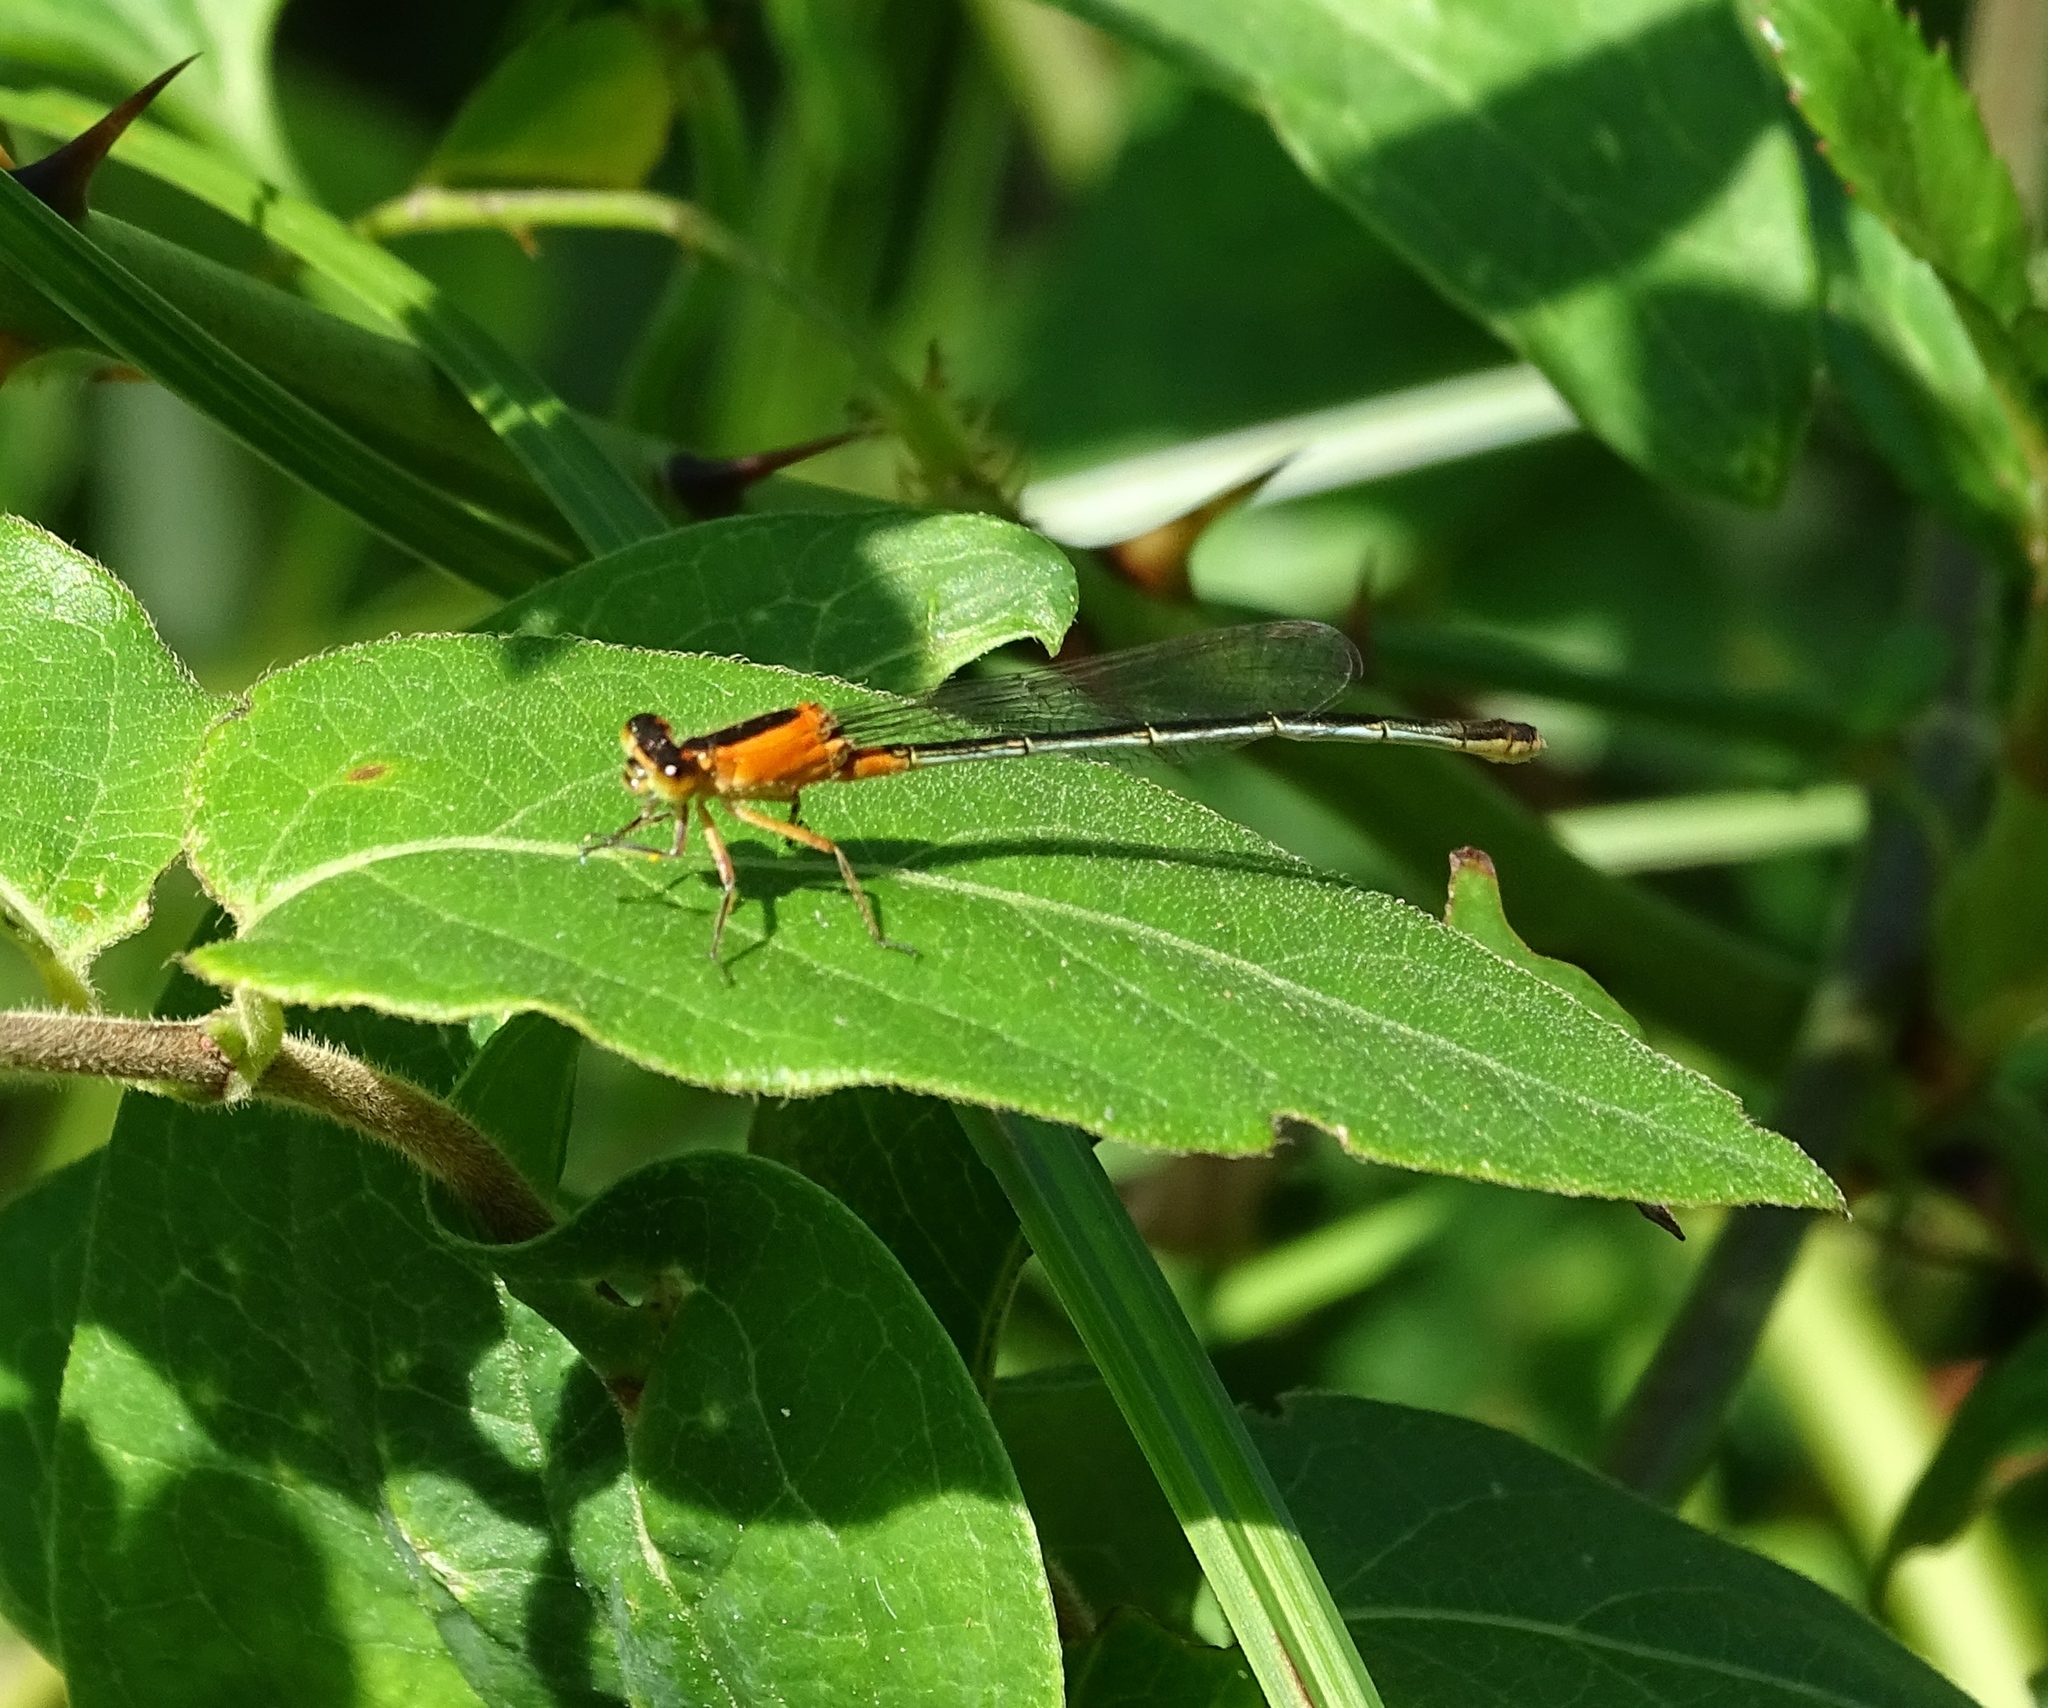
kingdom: Animalia
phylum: Arthropoda
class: Insecta
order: Odonata
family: Coenagrionidae
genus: Ischnura
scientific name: Ischnura ramburii
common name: Rambur's forktail
